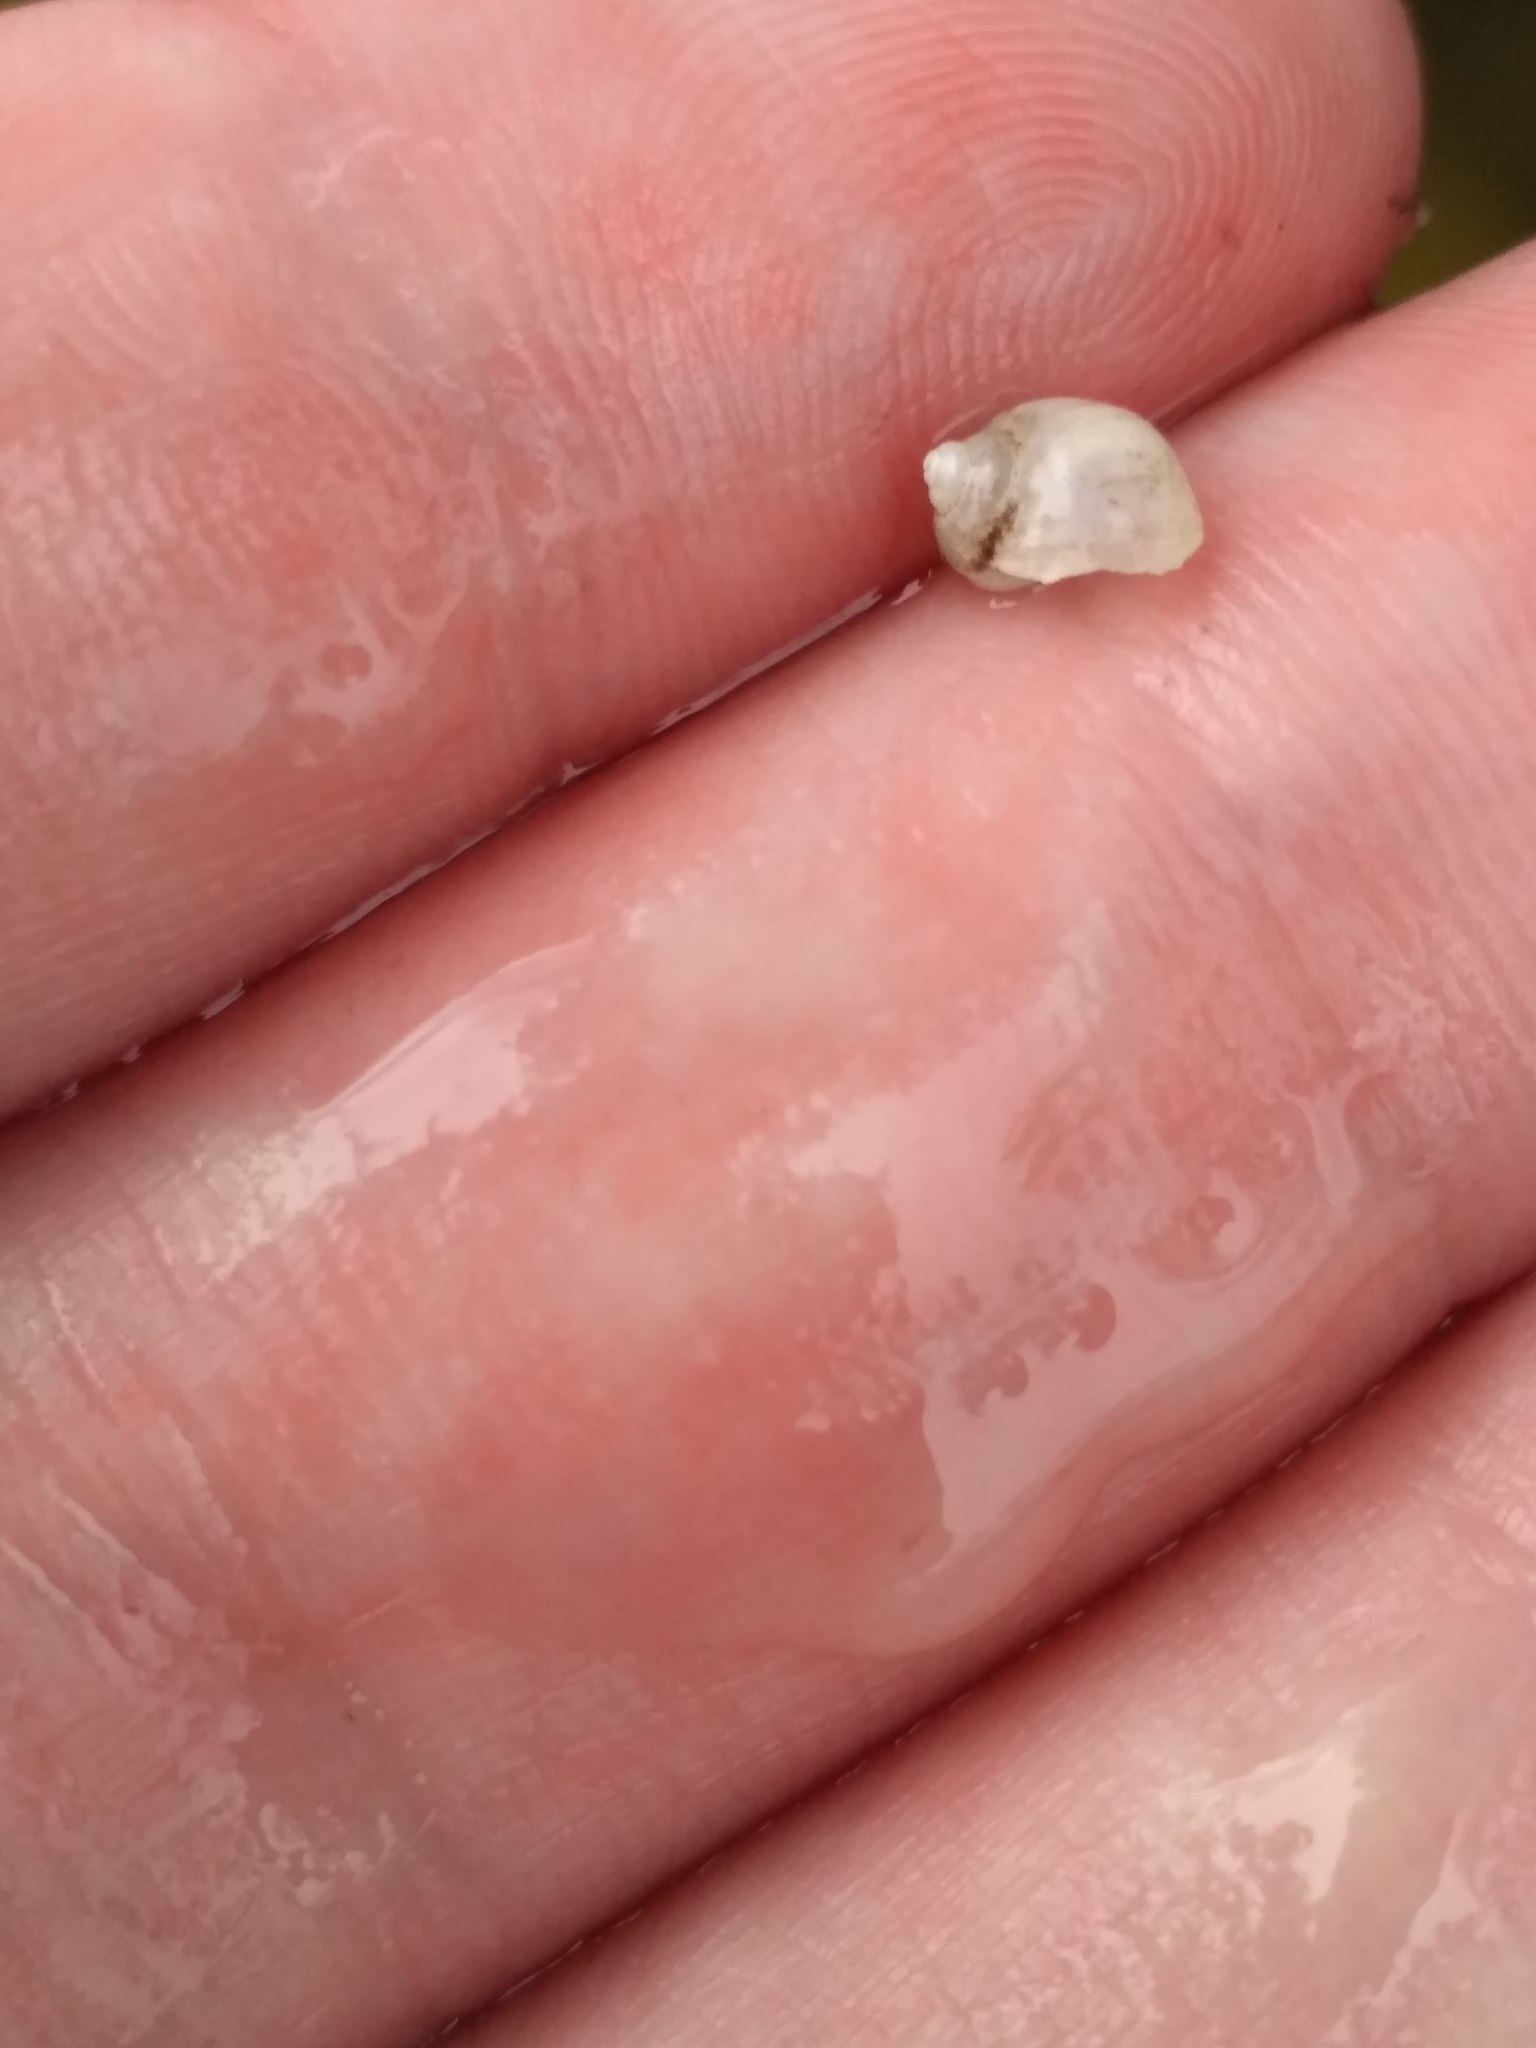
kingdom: Animalia
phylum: Mollusca
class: Gastropoda
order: Littorinimorpha
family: Lithoglyphidae
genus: Lithoglyphus
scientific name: Lithoglyphus naticoides
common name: Gravel snail
